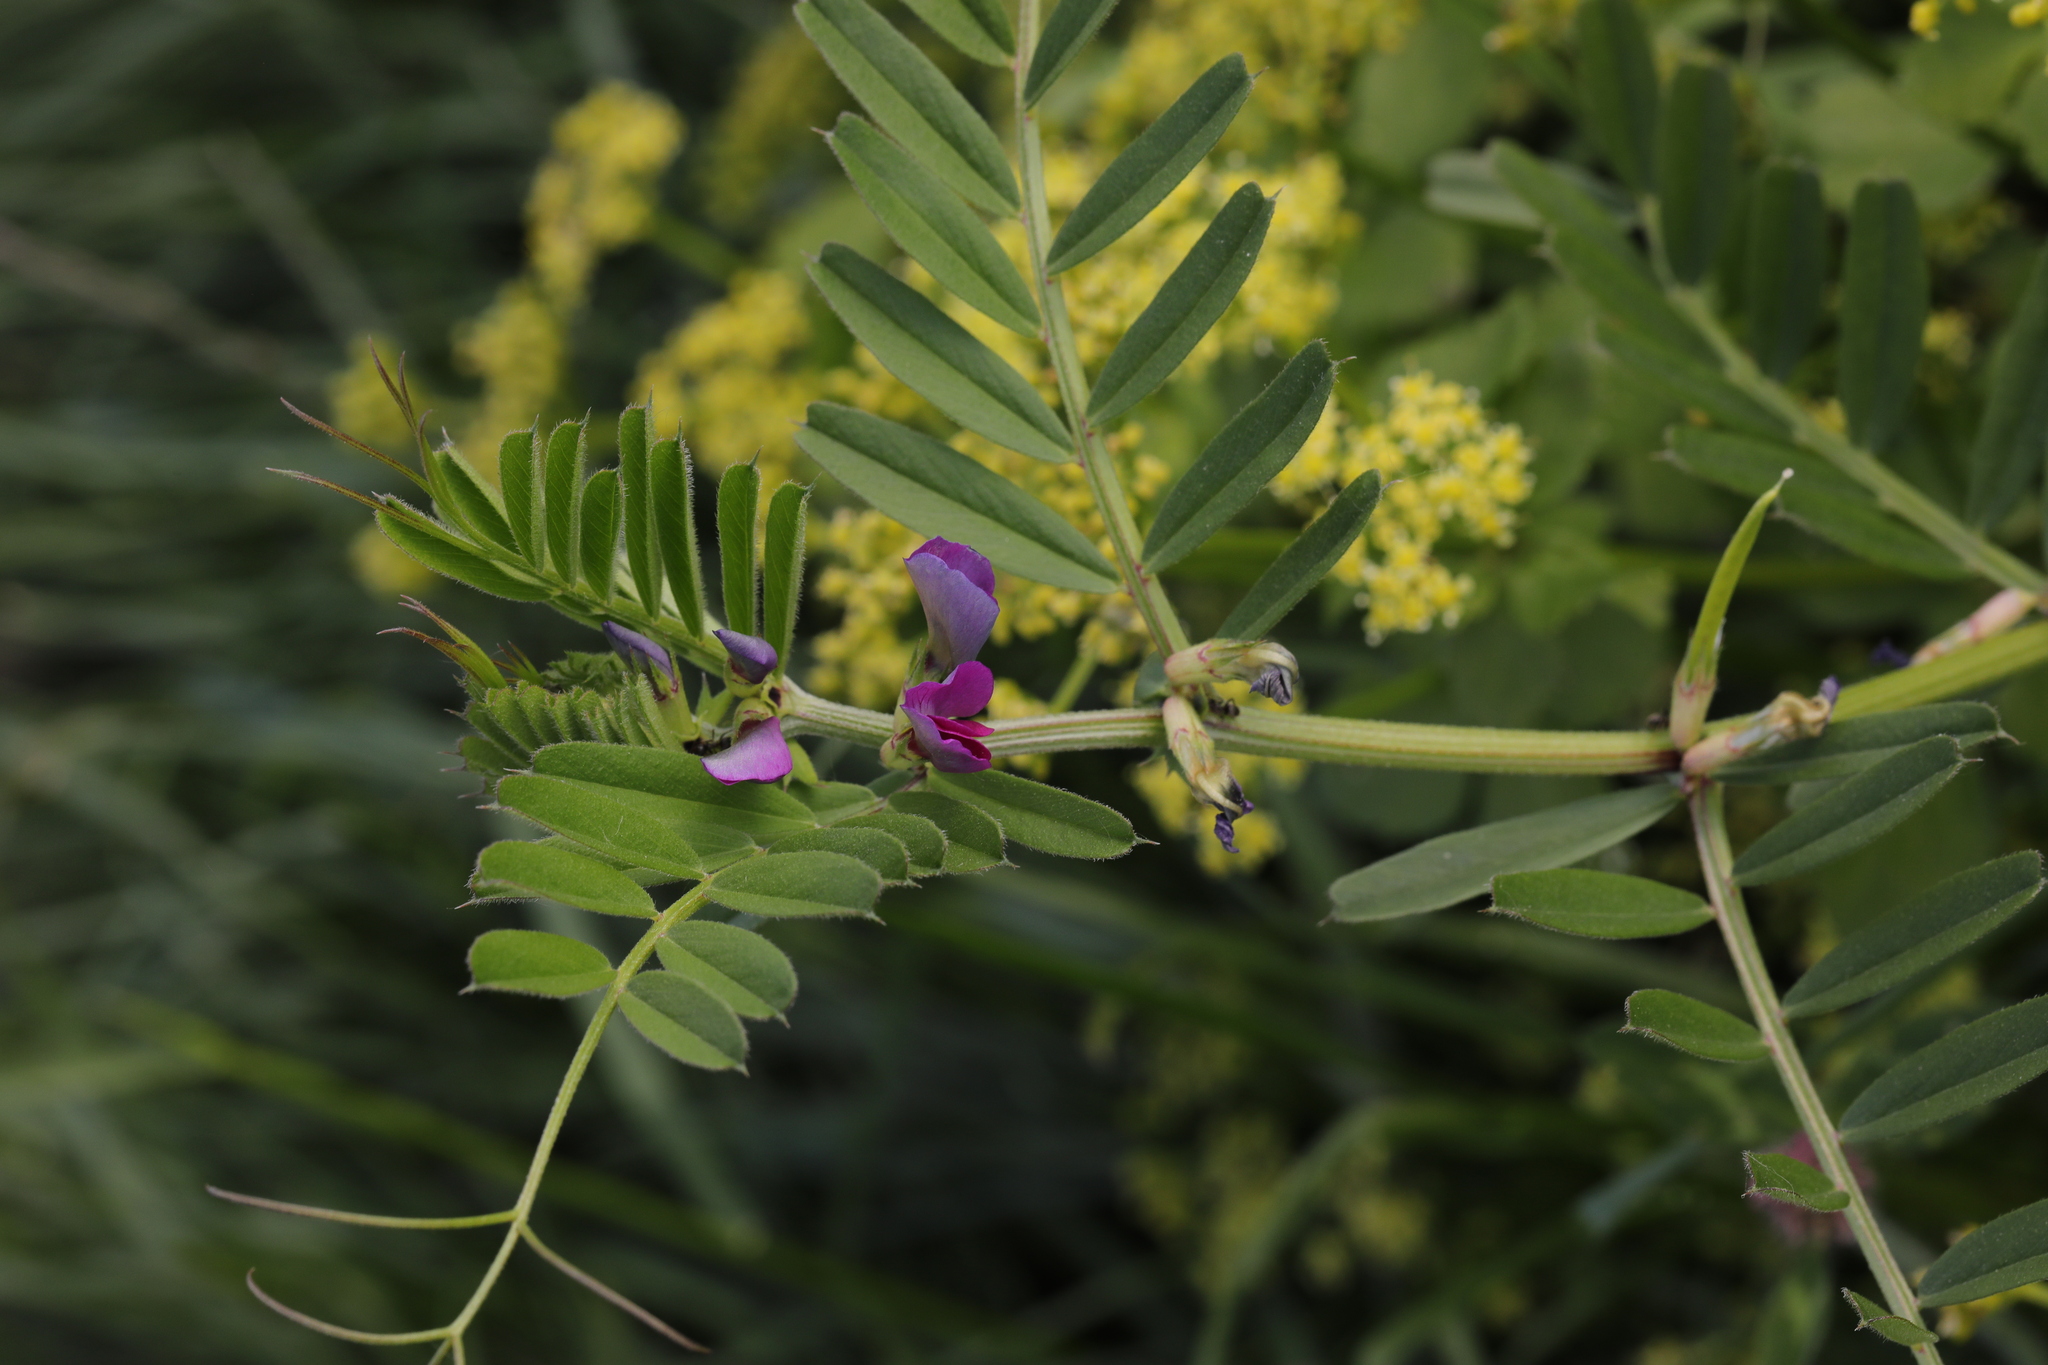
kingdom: Plantae
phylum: Tracheophyta
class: Magnoliopsida
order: Fabales
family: Fabaceae
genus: Vicia
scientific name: Vicia sativa
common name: Garden vetch
